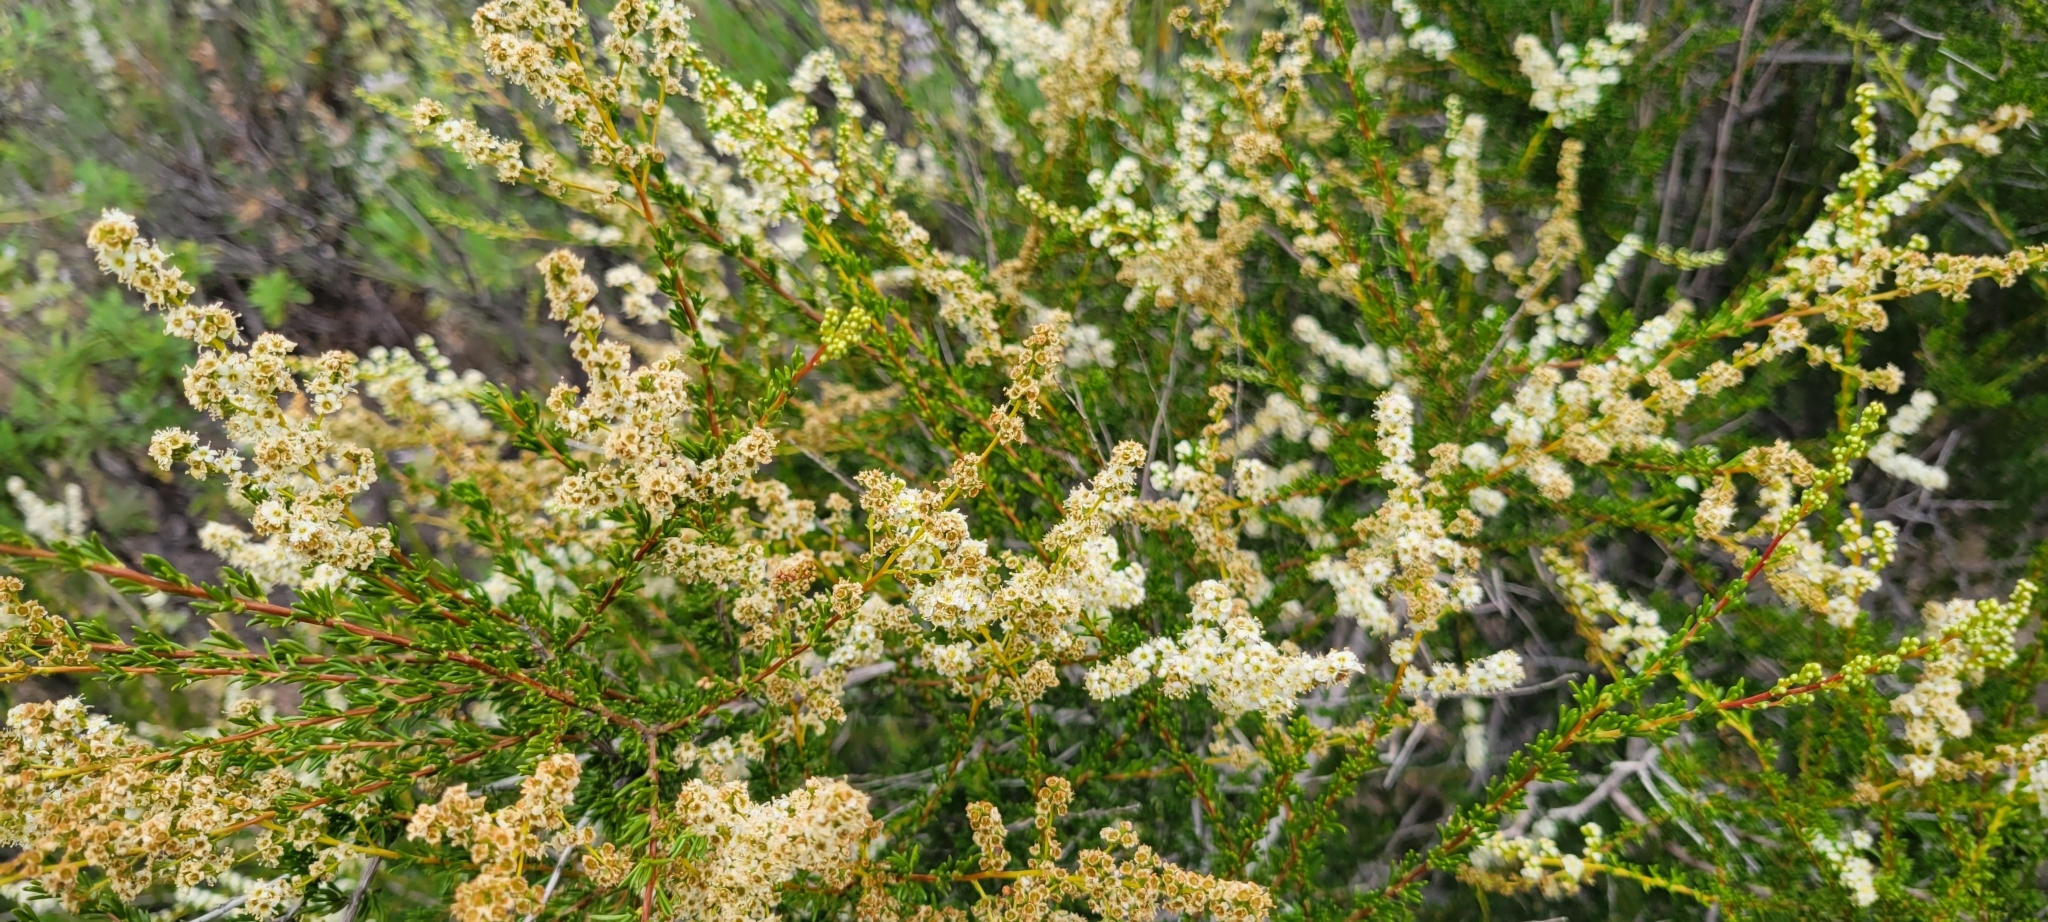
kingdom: Plantae
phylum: Tracheophyta
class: Magnoliopsida
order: Rosales
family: Rosaceae
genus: Adenostoma
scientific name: Adenostoma fasciculatum
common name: Chamise
